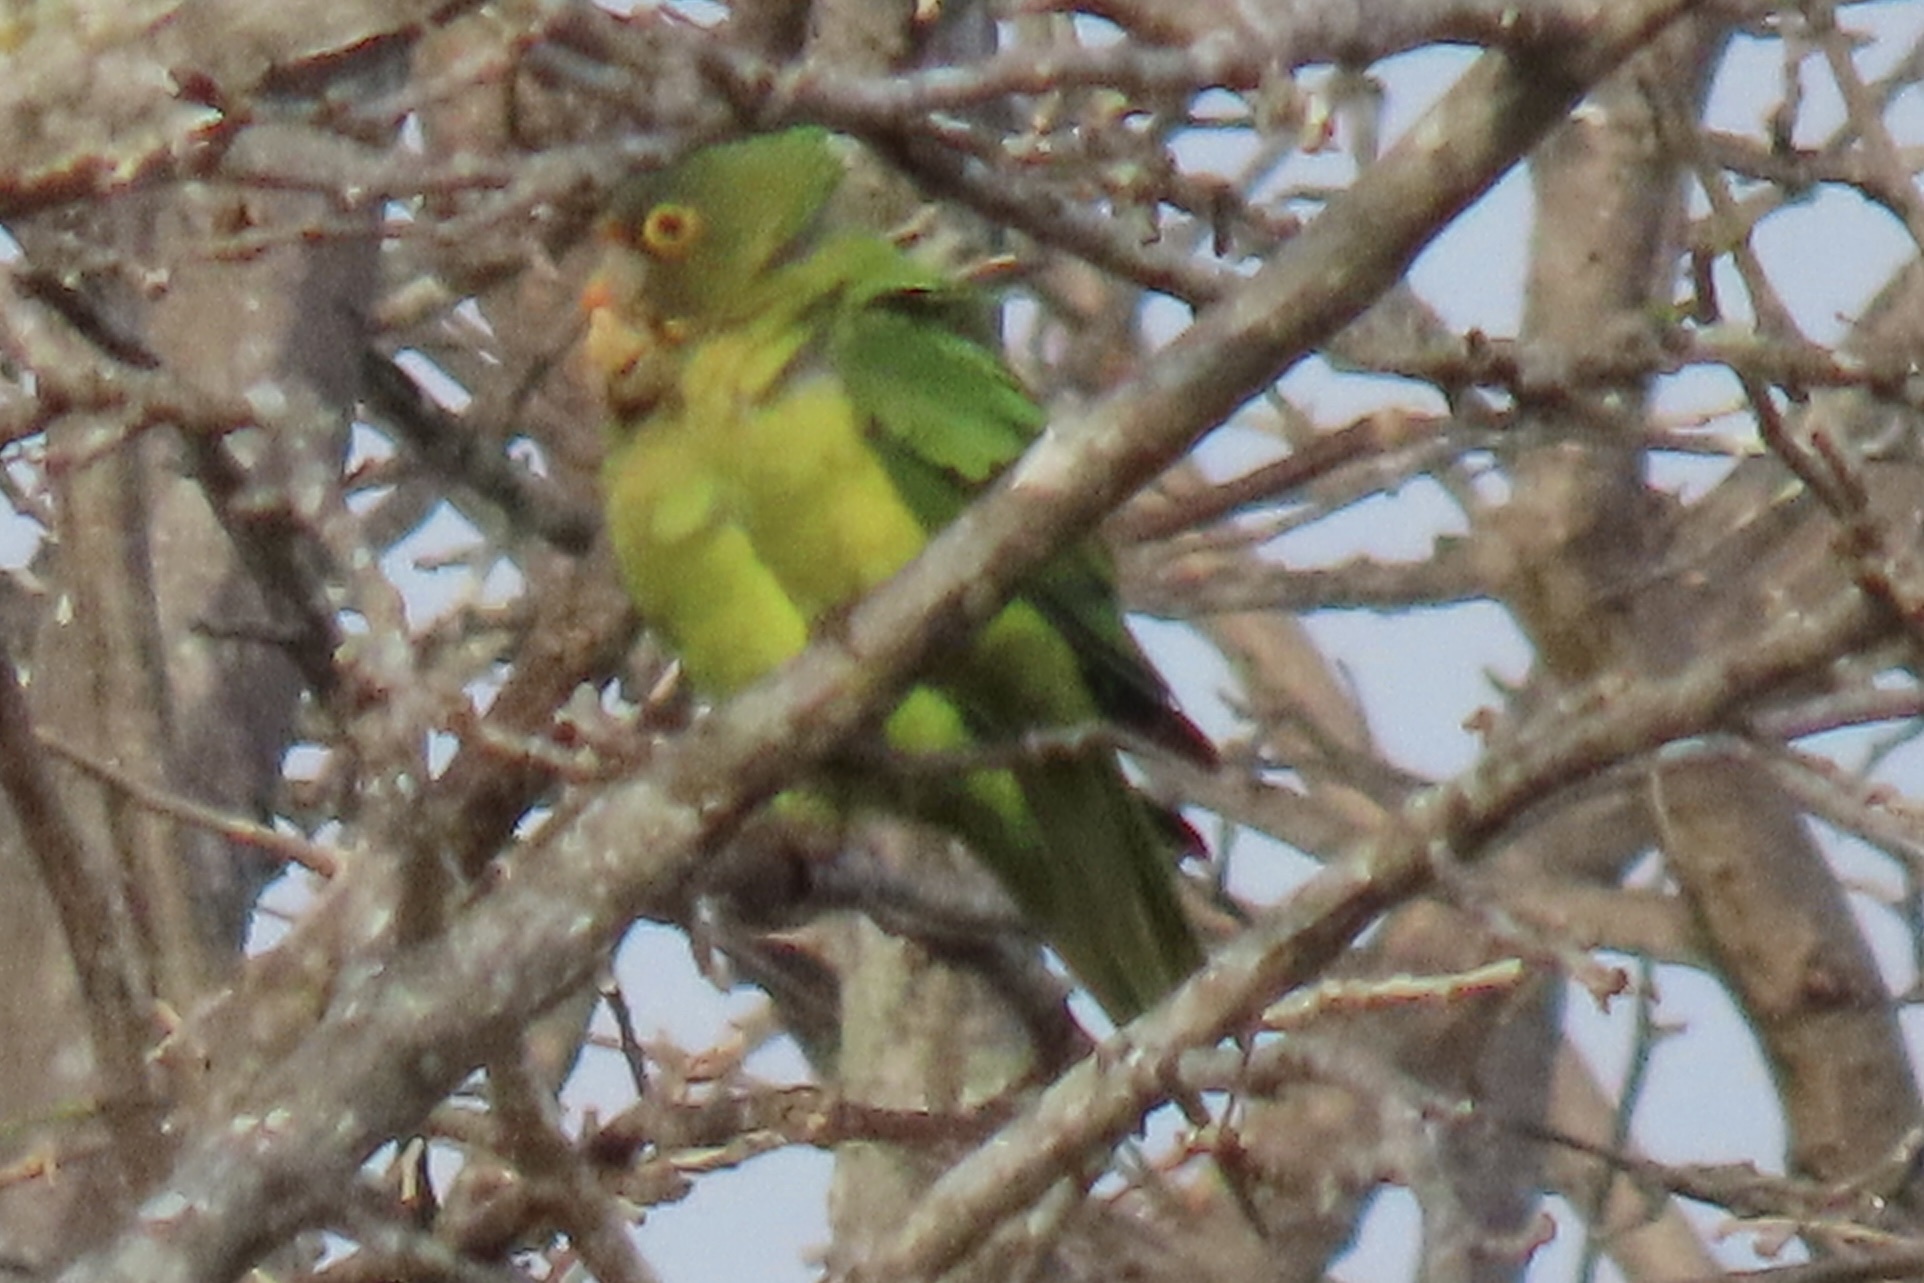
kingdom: Animalia
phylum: Chordata
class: Aves
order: Psittaciformes
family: Psittacidae
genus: Aratinga
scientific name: Aratinga canicularis
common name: Orange-fronted parakeet
